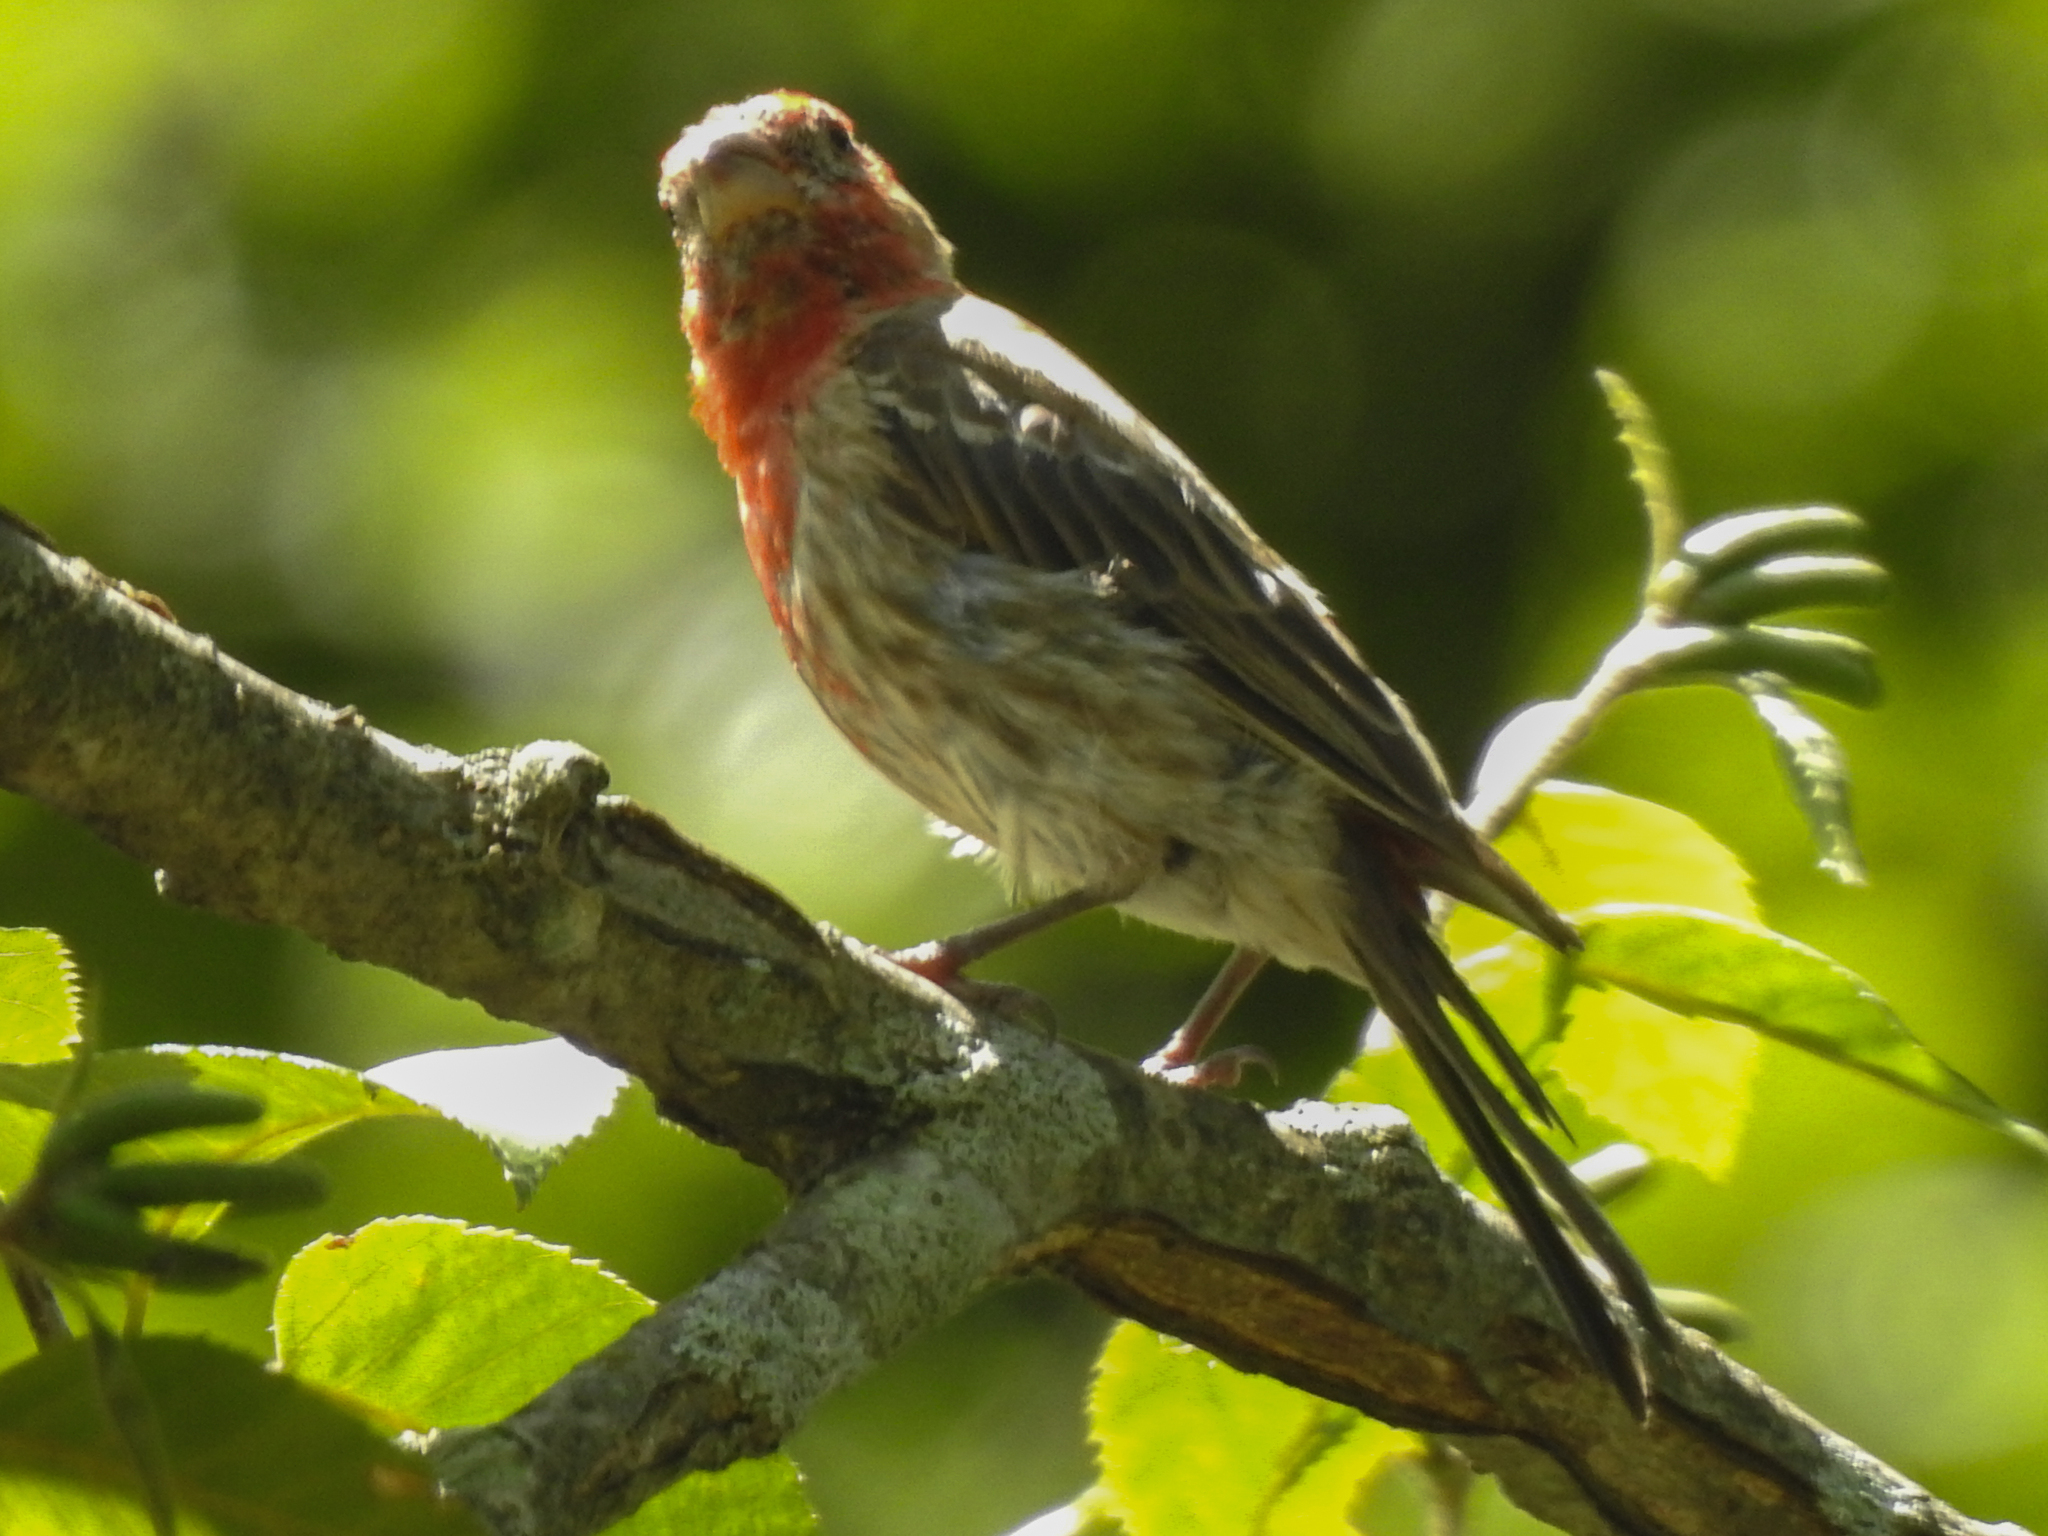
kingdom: Animalia
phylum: Chordata
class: Aves
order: Passeriformes
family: Fringillidae
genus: Haemorhous
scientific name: Haemorhous mexicanus
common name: House finch
